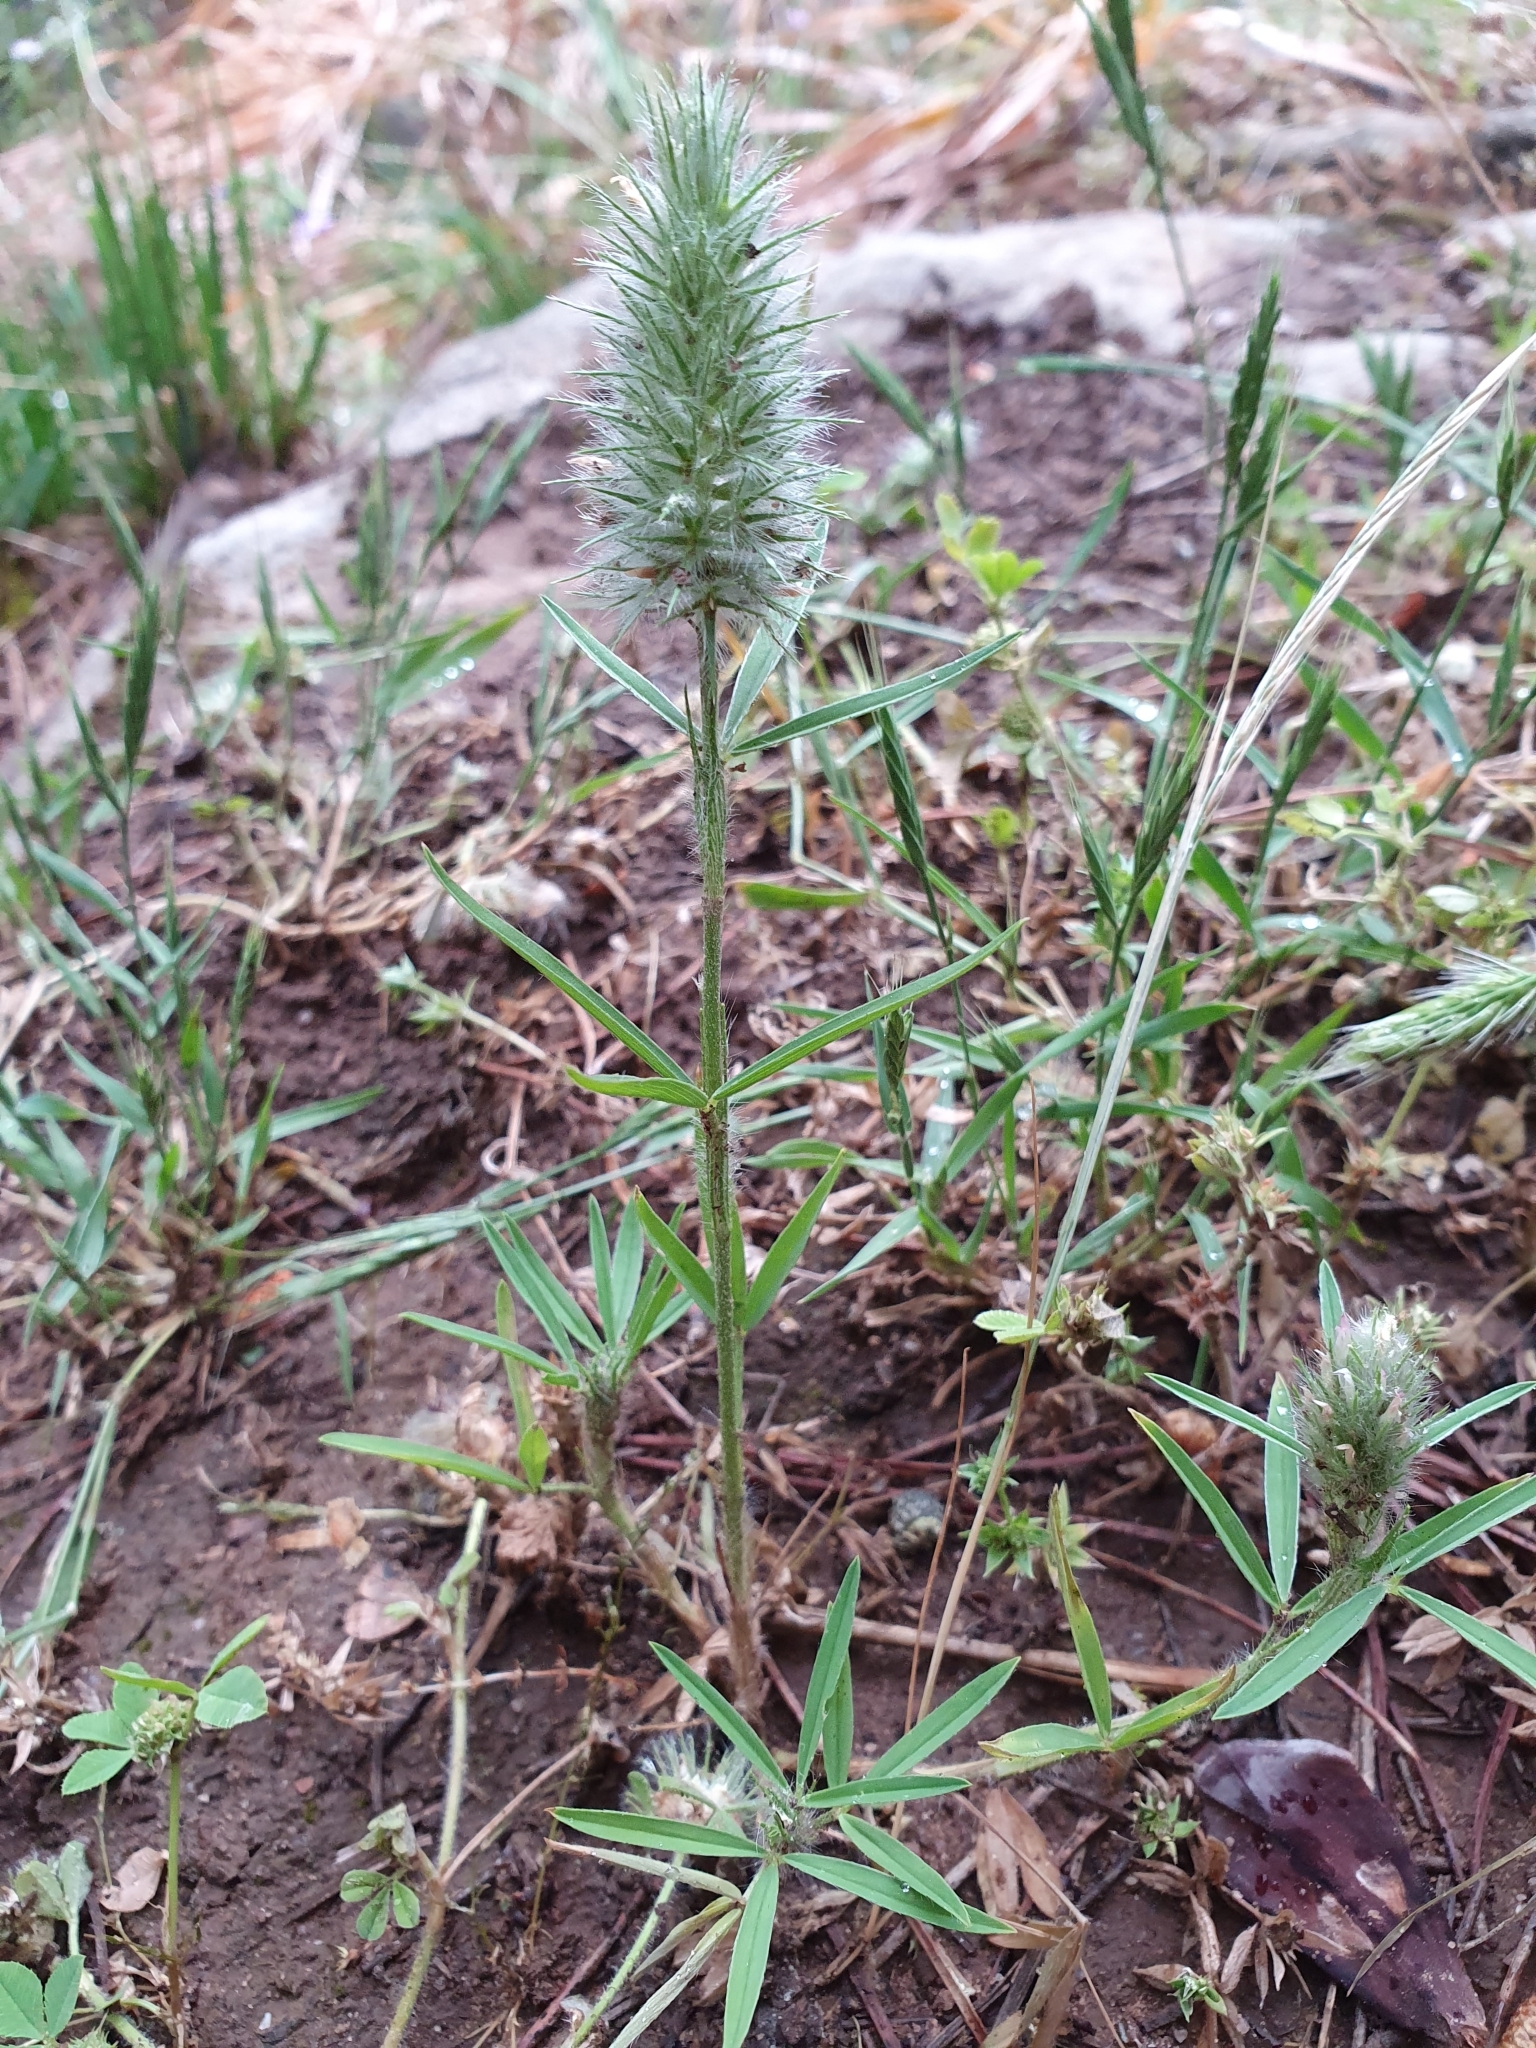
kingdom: Plantae
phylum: Tracheophyta
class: Magnoliopsida
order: Fabales
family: Fabaceae
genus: Trifolium
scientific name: Trifolium angustifolium
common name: Narrow clover
